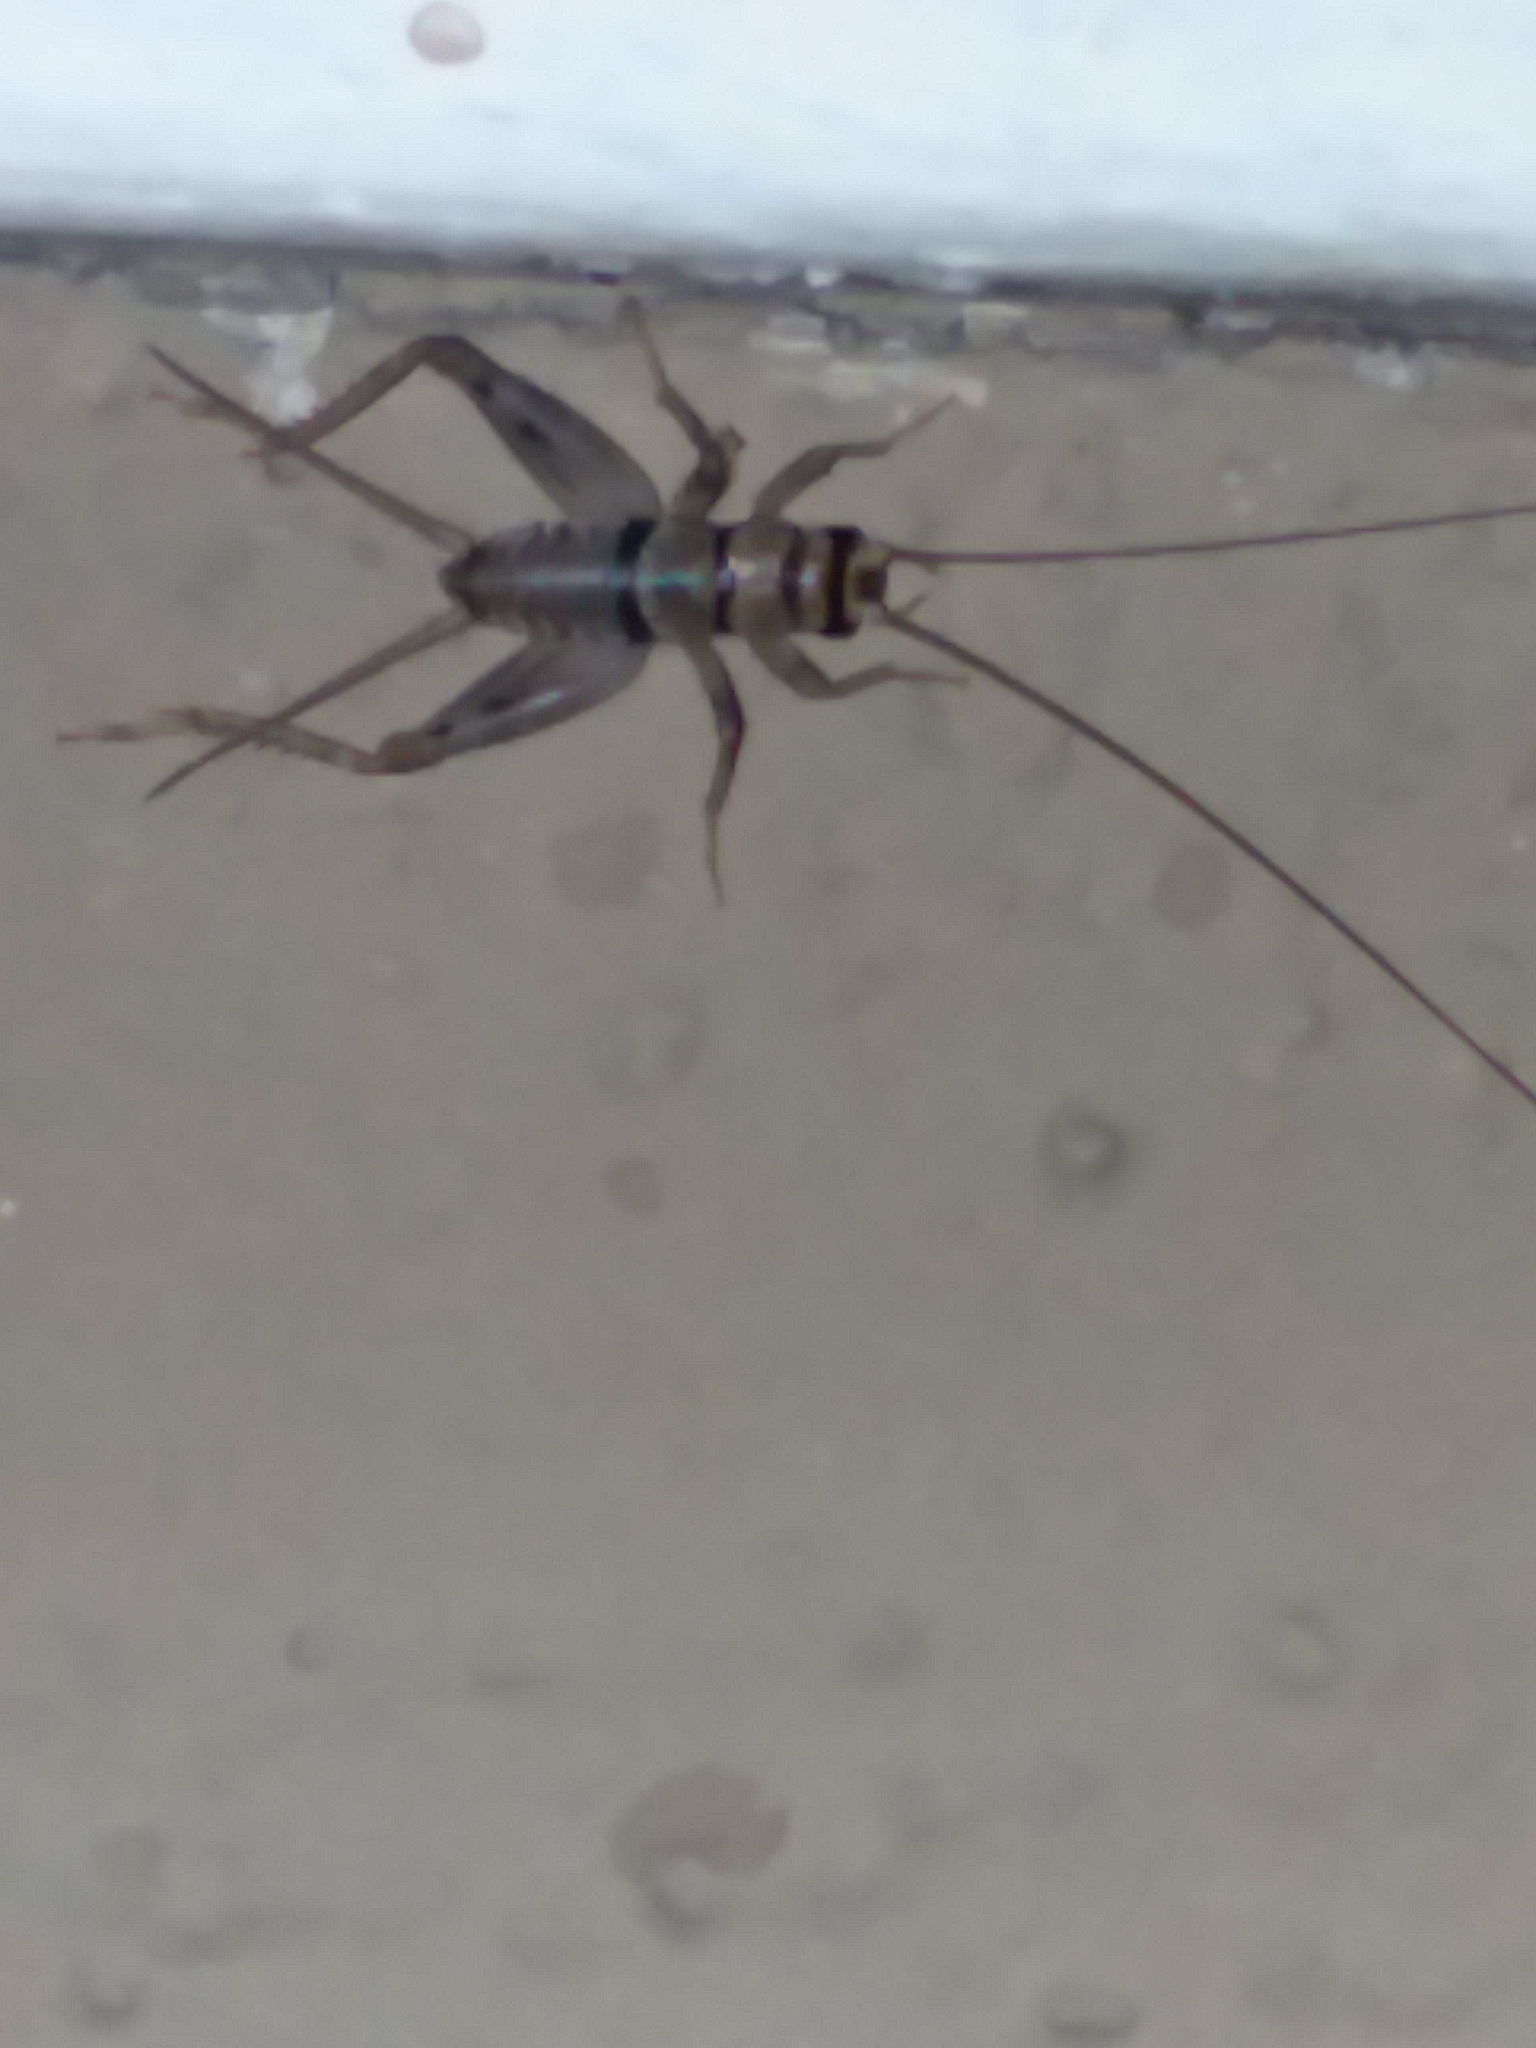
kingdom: Animalia
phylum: Arthropoda
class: Insecta
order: Orthoptera
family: Gryllidae
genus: Gryllodes
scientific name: Gryllodes sigillatus
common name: Tropical house cricket
